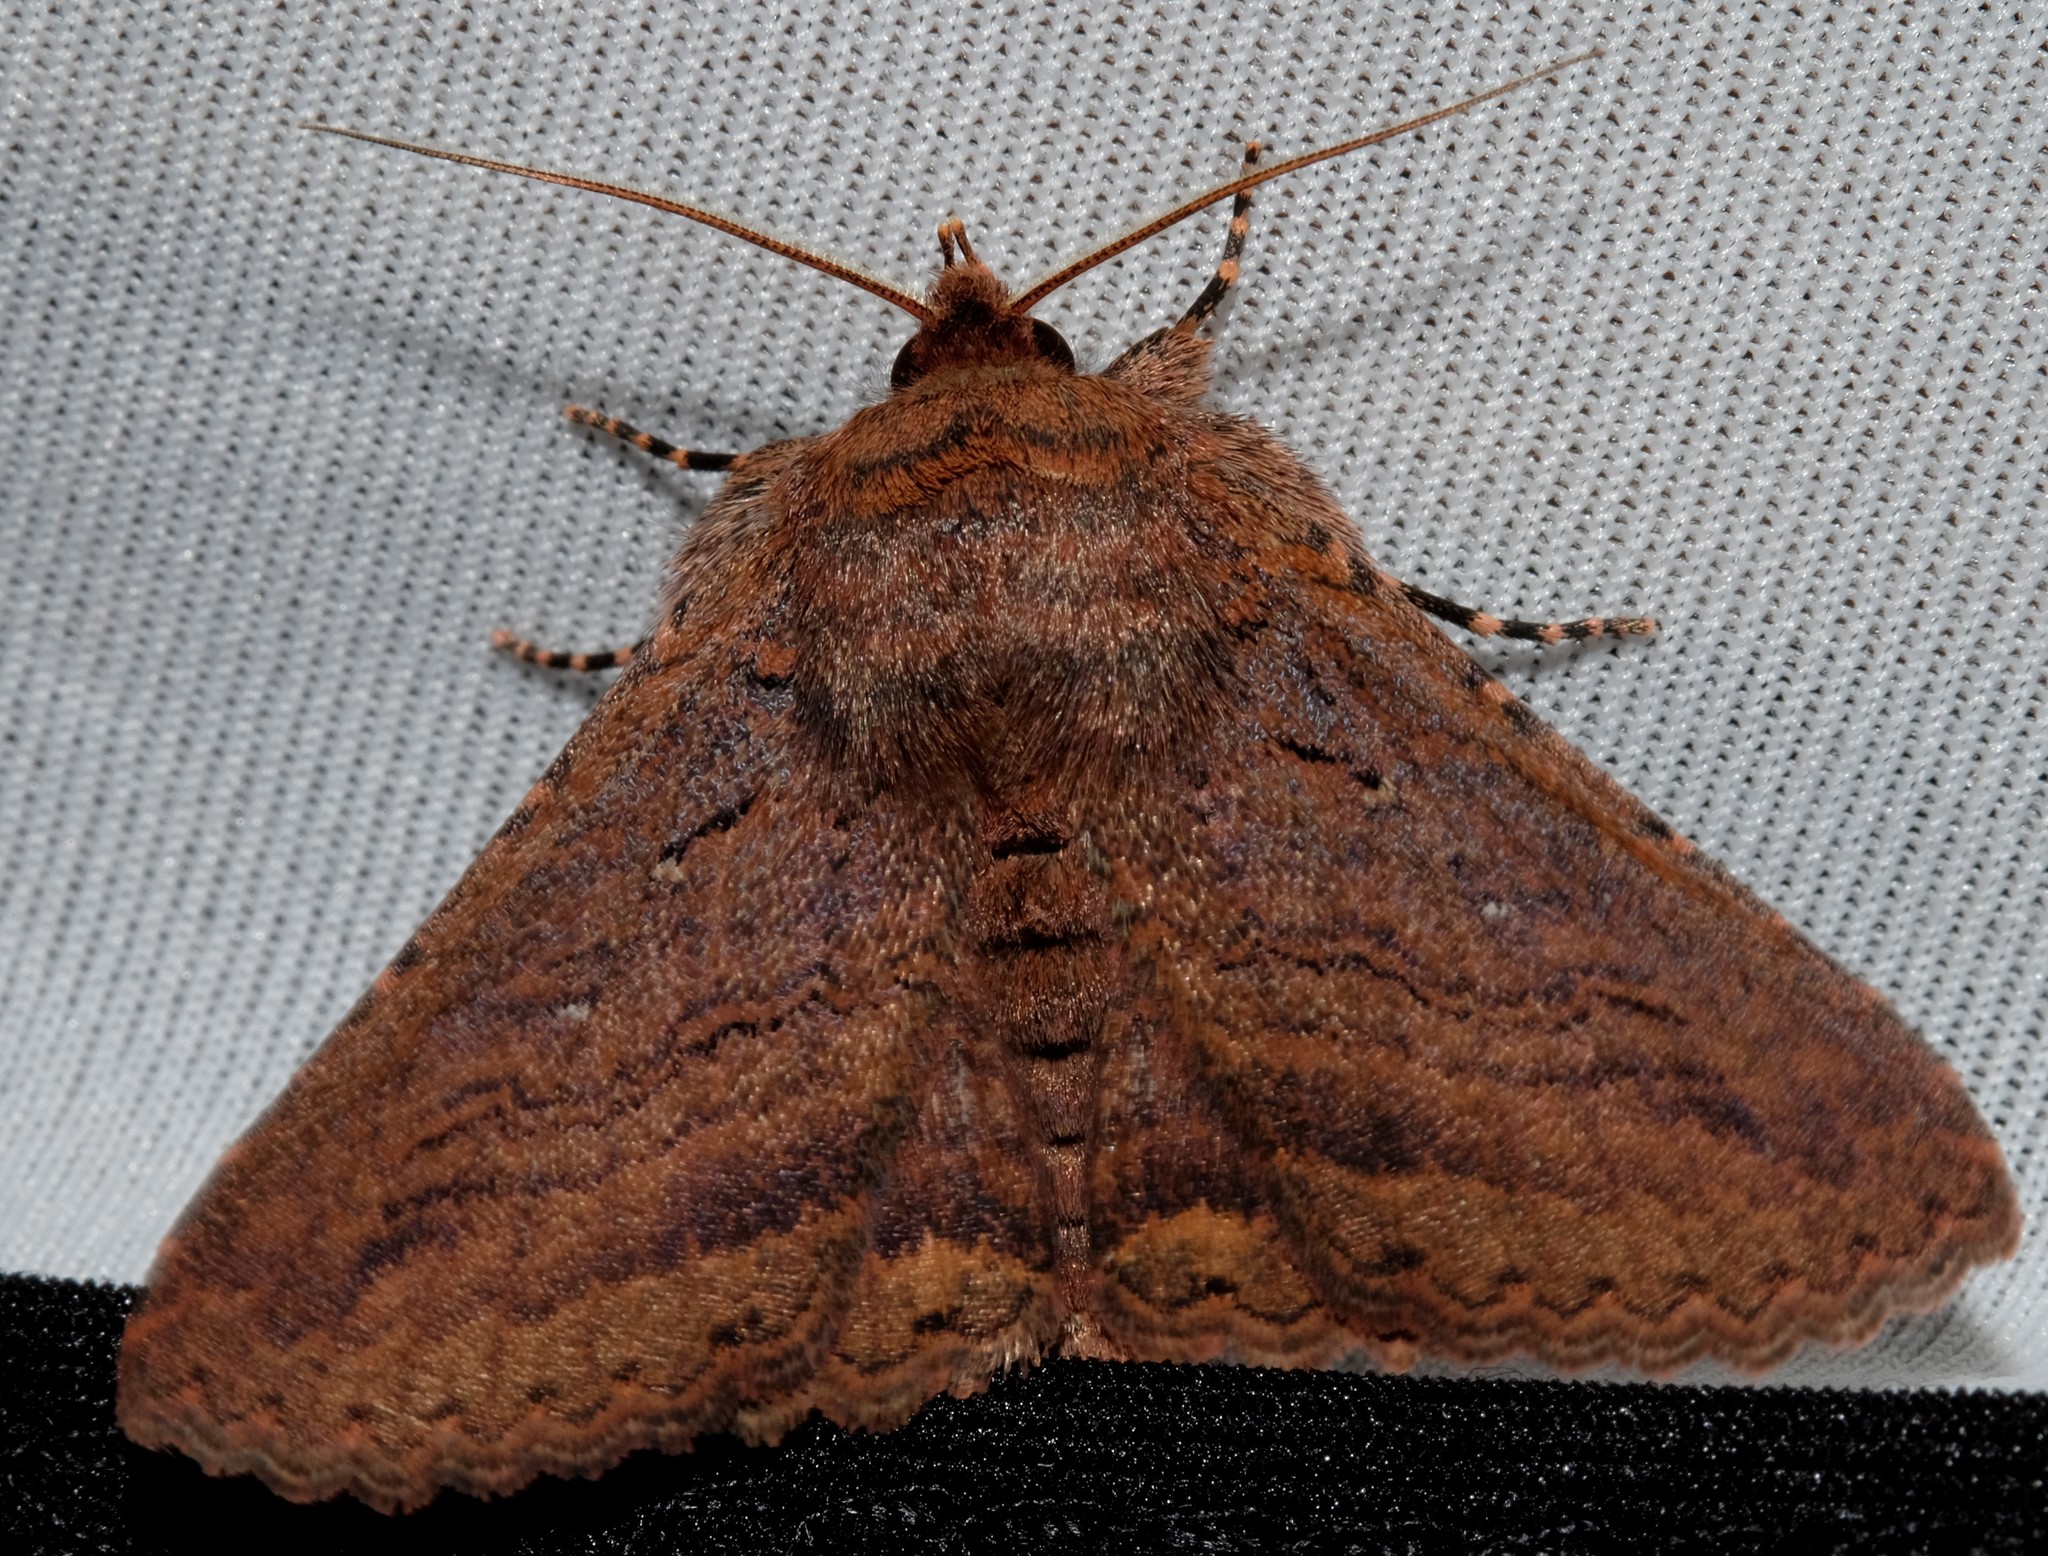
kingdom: Animalia
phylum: Arthropoda
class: Insecta
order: Lepidoptera
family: Erebidae
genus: Praxis
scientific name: Praxis porphyretica
